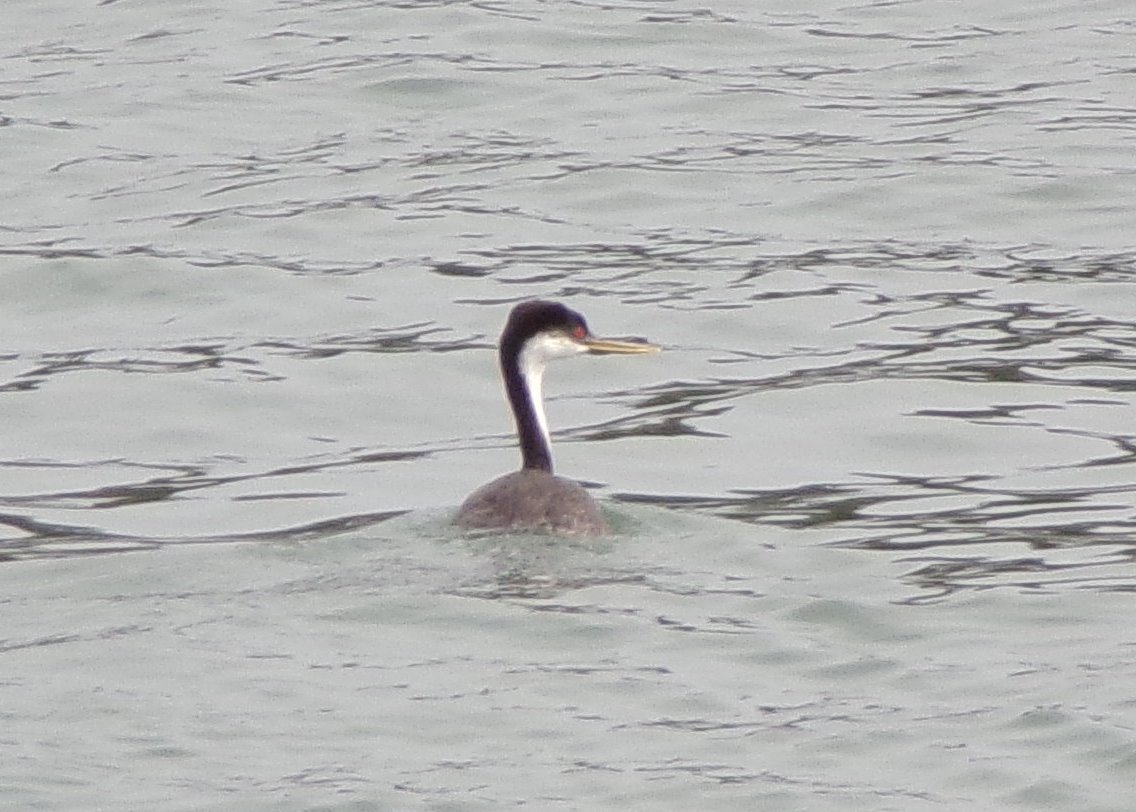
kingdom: Animalia
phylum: Chordata
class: Aves
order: Podicipediformes
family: Podicipedidae
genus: Aechmophorus
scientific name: Aechmophorus occidentalis
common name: Western grebe
